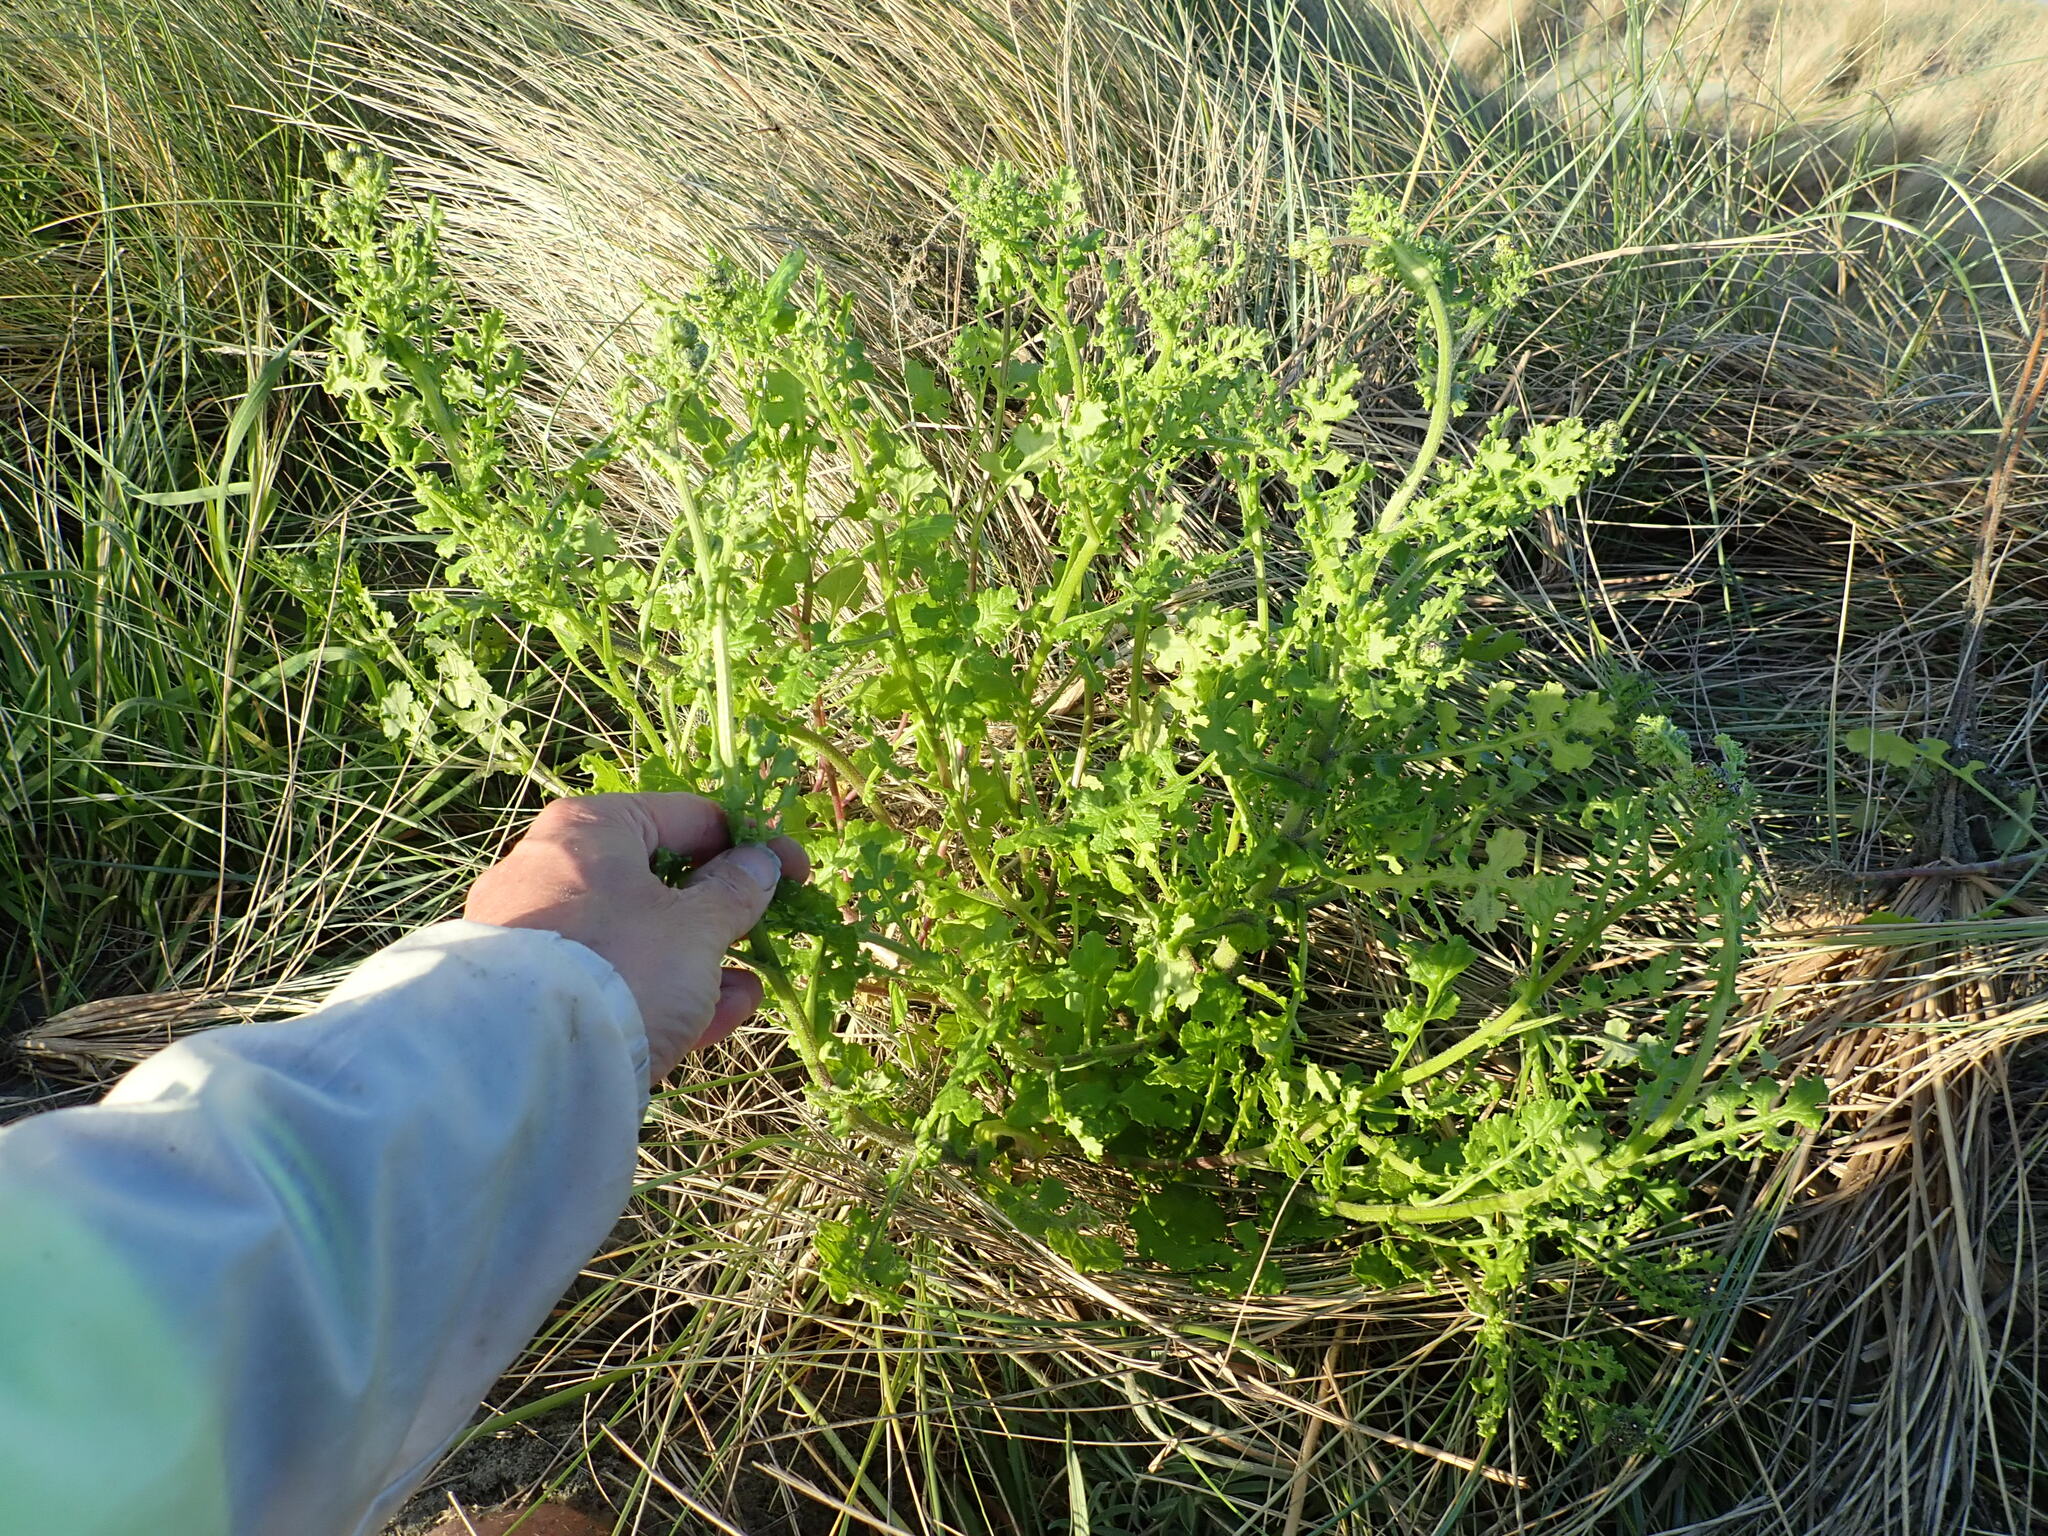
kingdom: Plantae
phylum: Tracheophyta
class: Magnoliopsida
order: Asterales
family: Asteraceae
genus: Senecio
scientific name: Senecio elegans
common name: Purple groundsel
